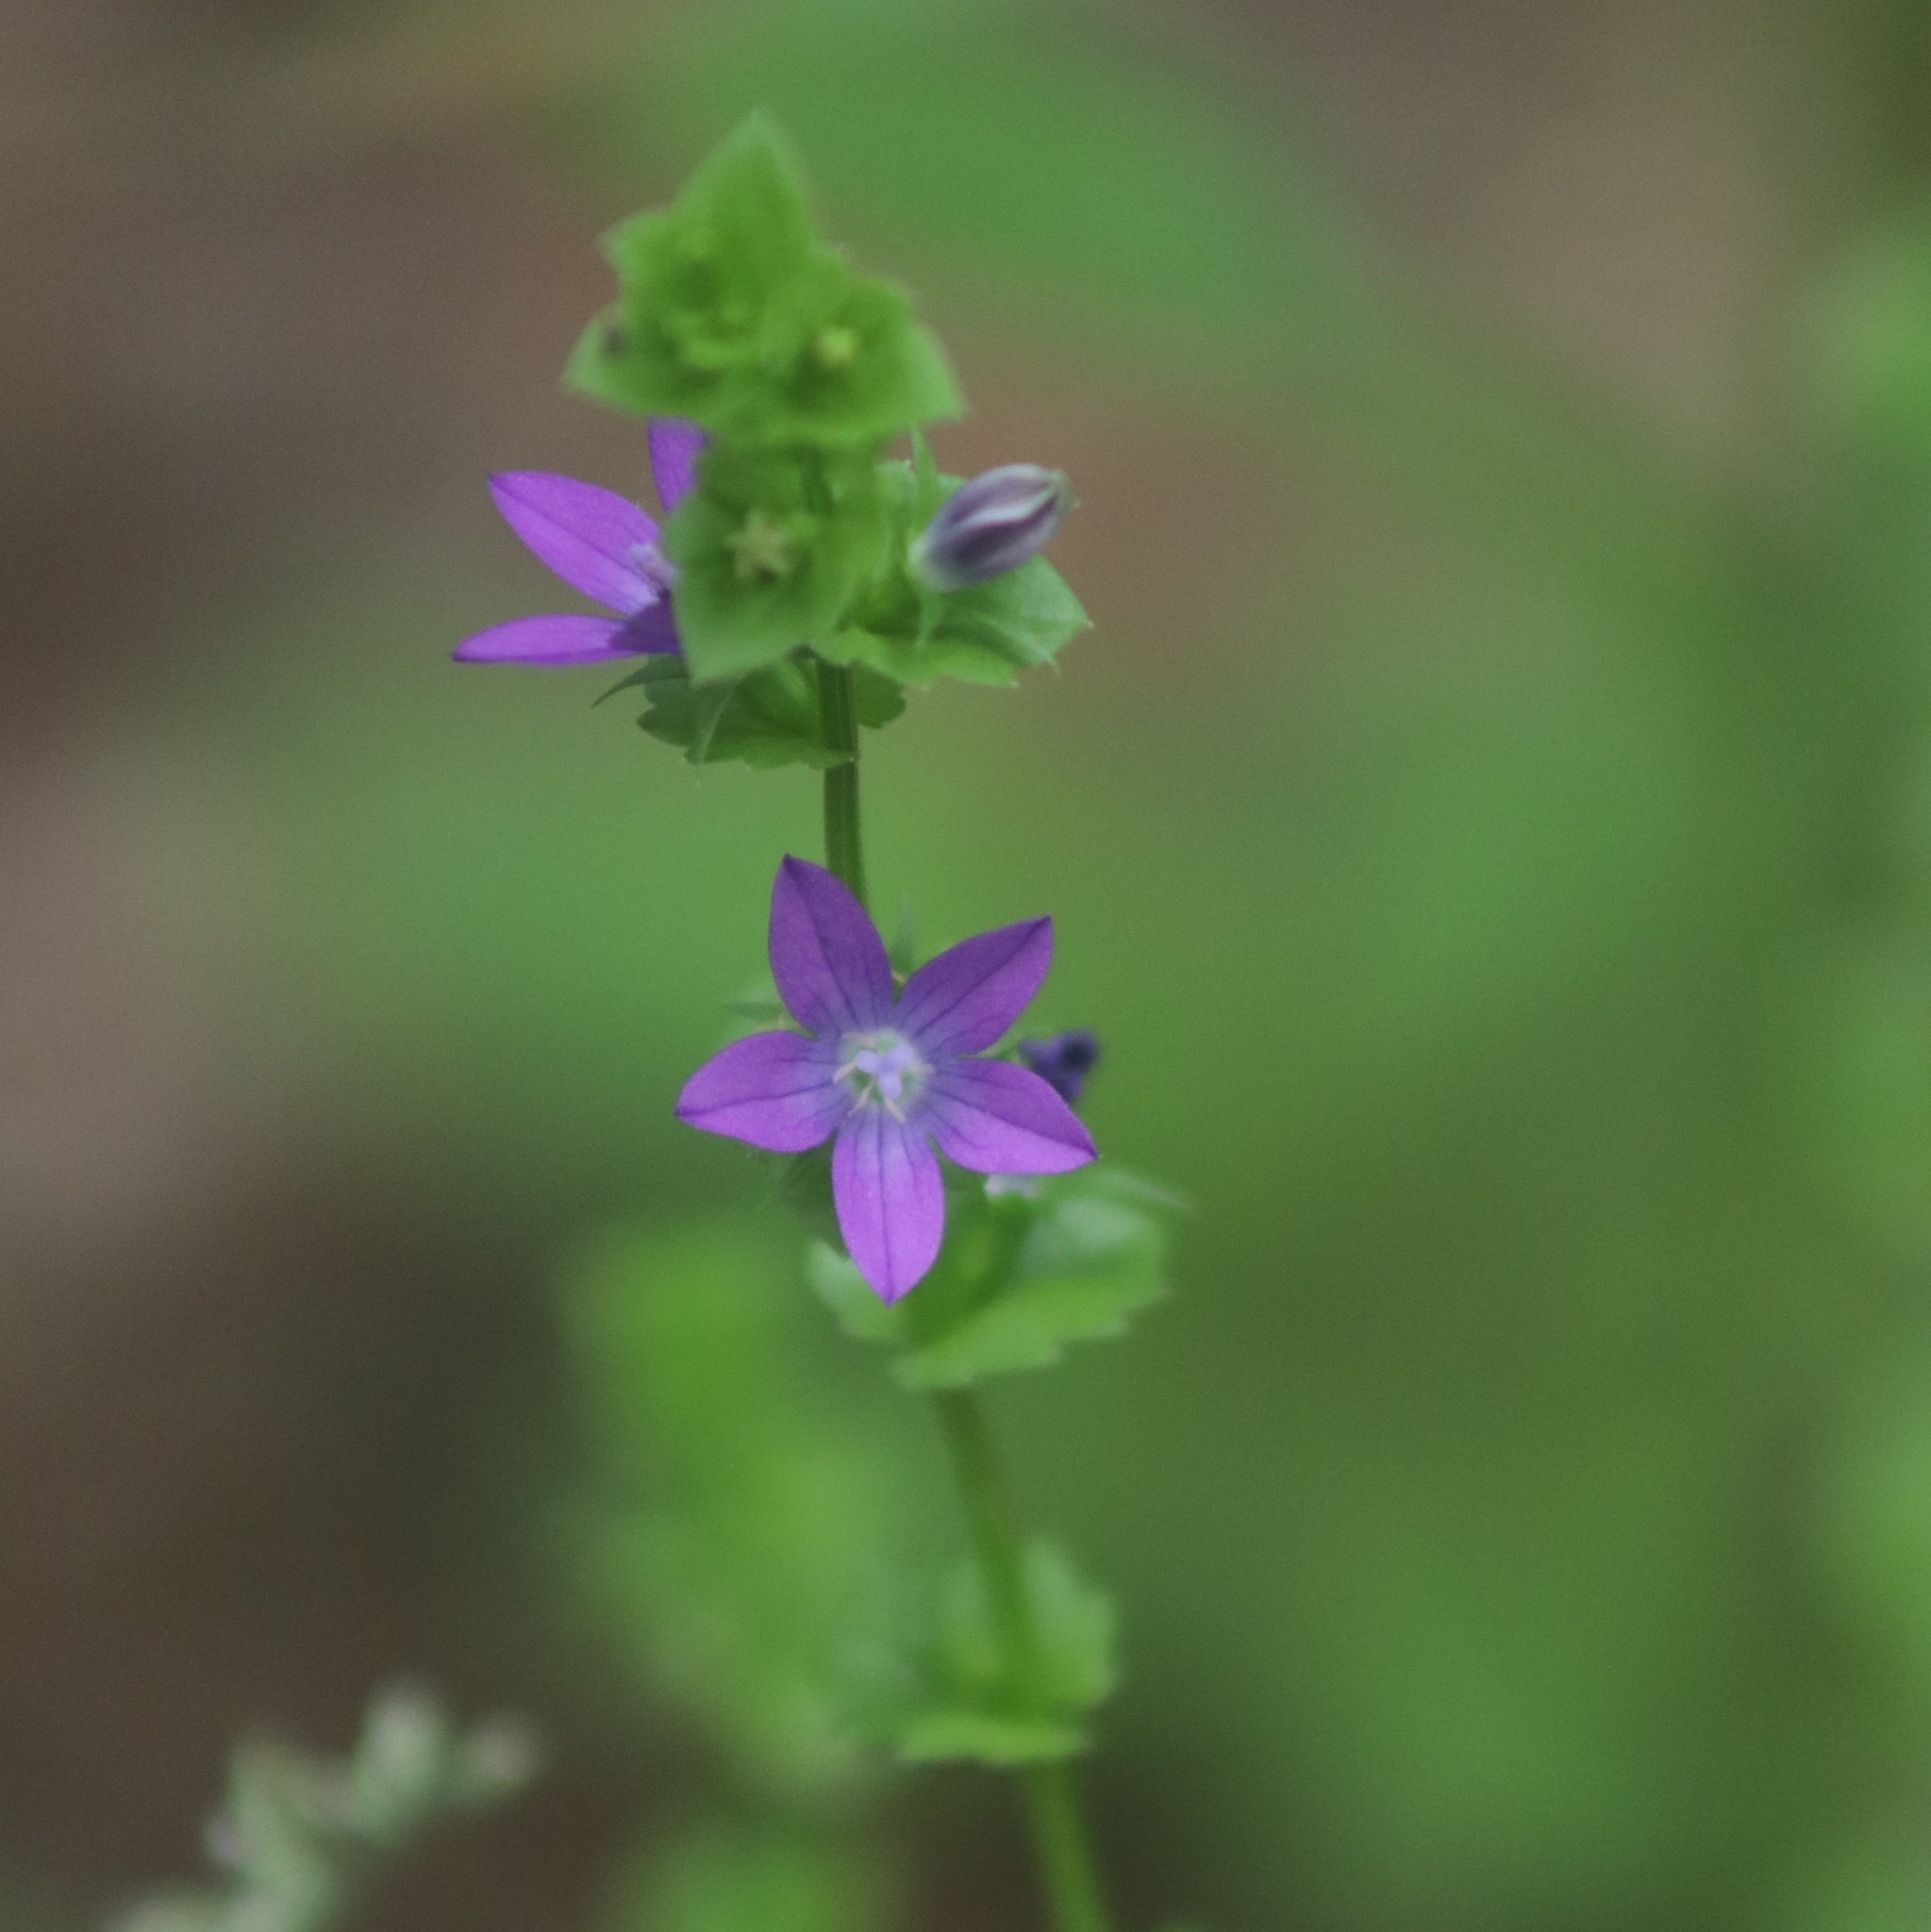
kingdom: Plantae
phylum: Tracheophyta
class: Magnoliopsida
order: Asterales
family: Campanulaceae
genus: Triodanis
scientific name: Triodanis perfoliata
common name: Clasping venus' looking-glass
